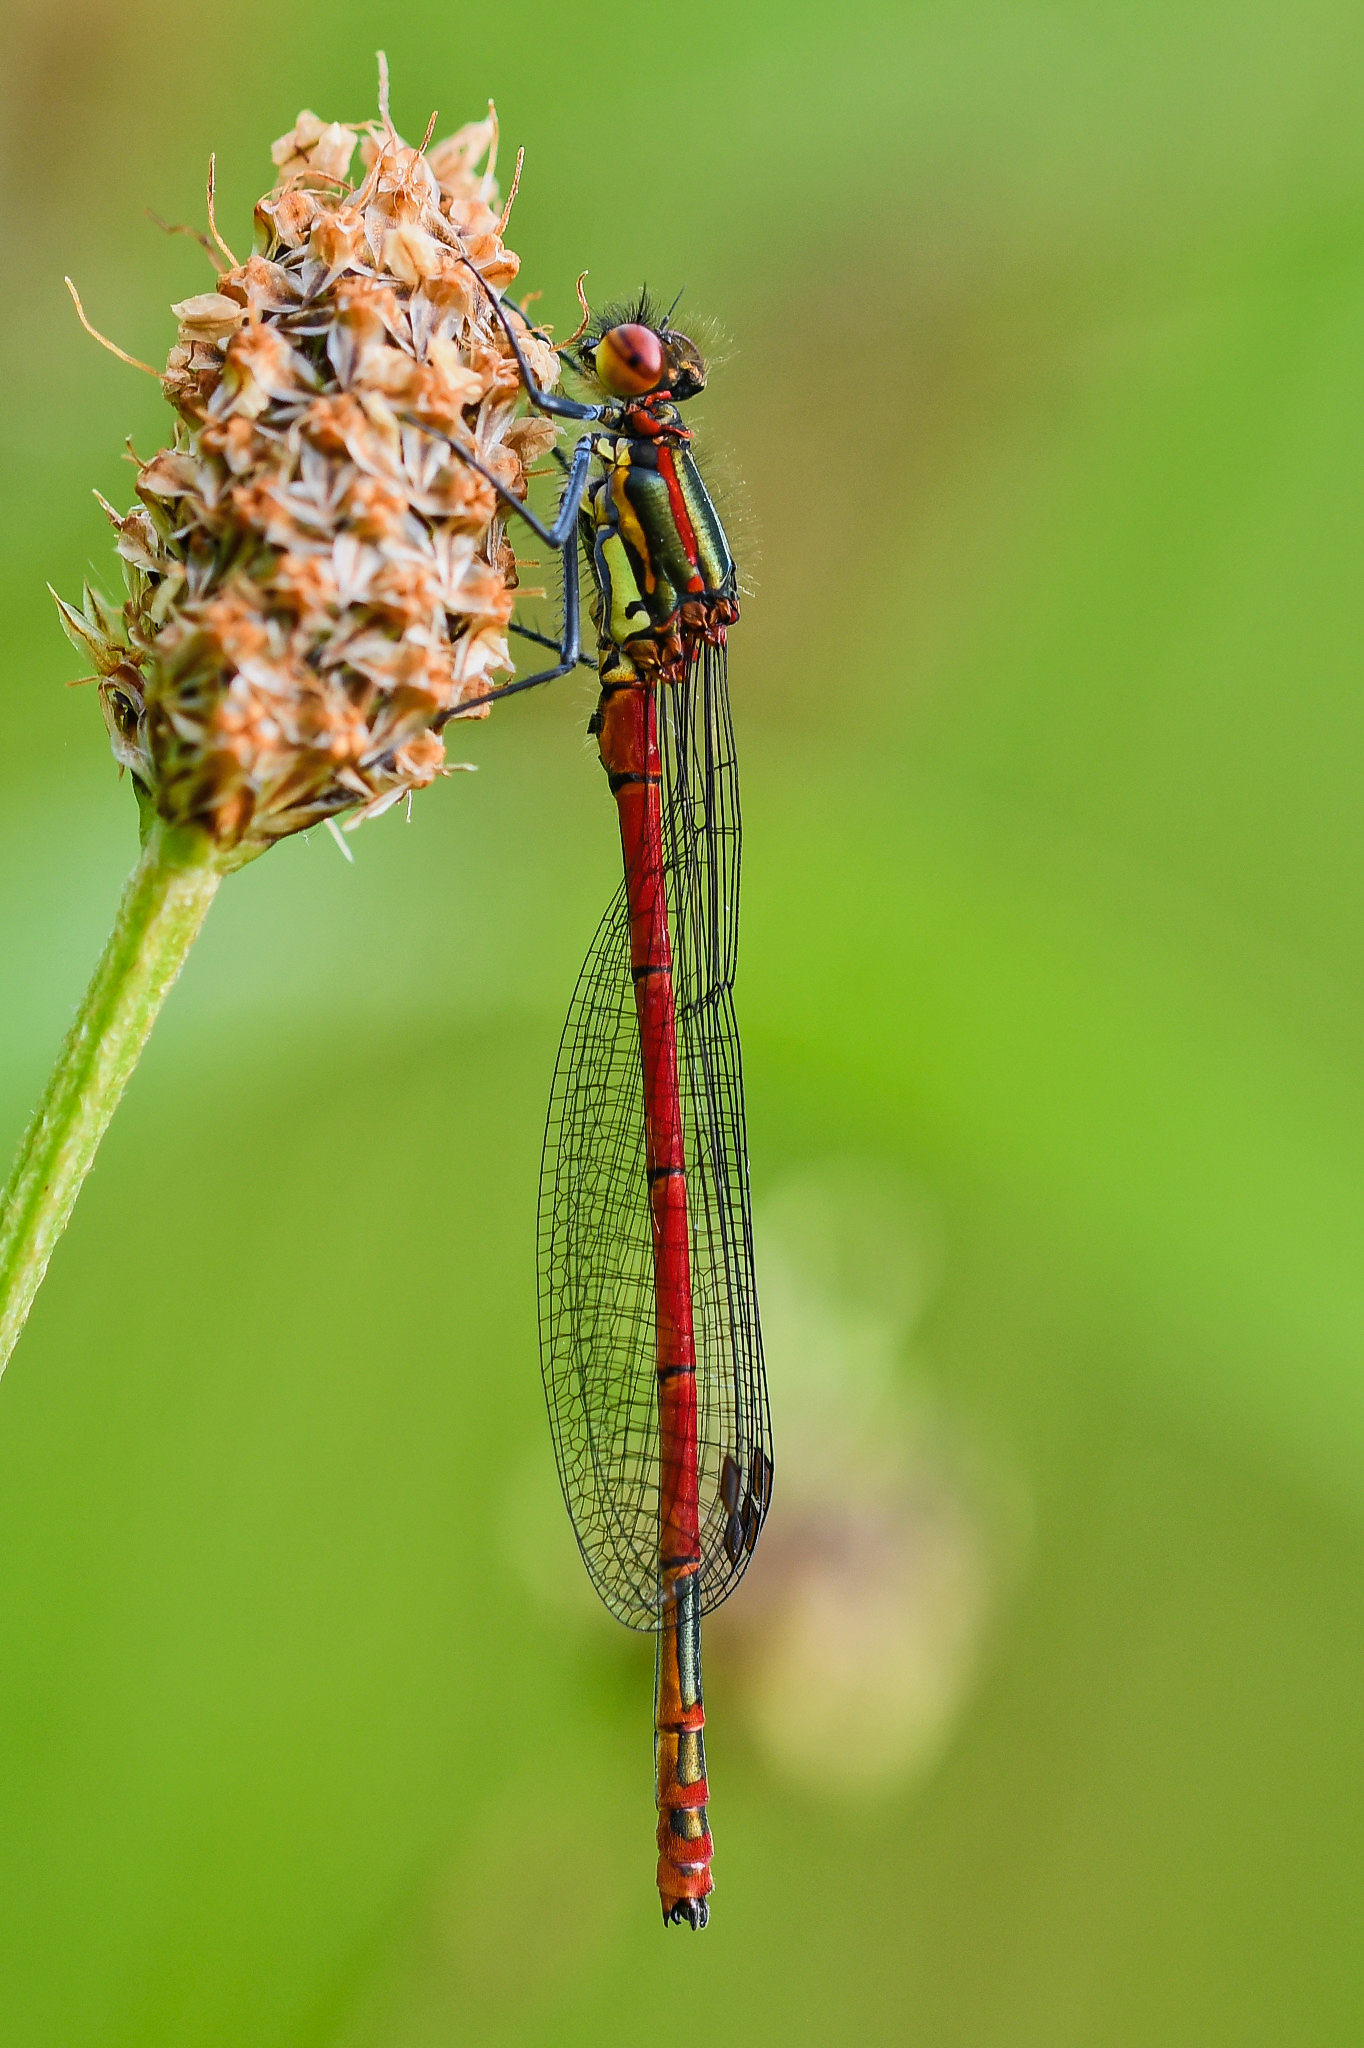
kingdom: Animalia
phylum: Arthropoda
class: Insecta
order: Odonata
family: Coenagrionidae
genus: Pyrrhosoma
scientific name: Pyrrhosoma nymphula
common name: Large red damsel
